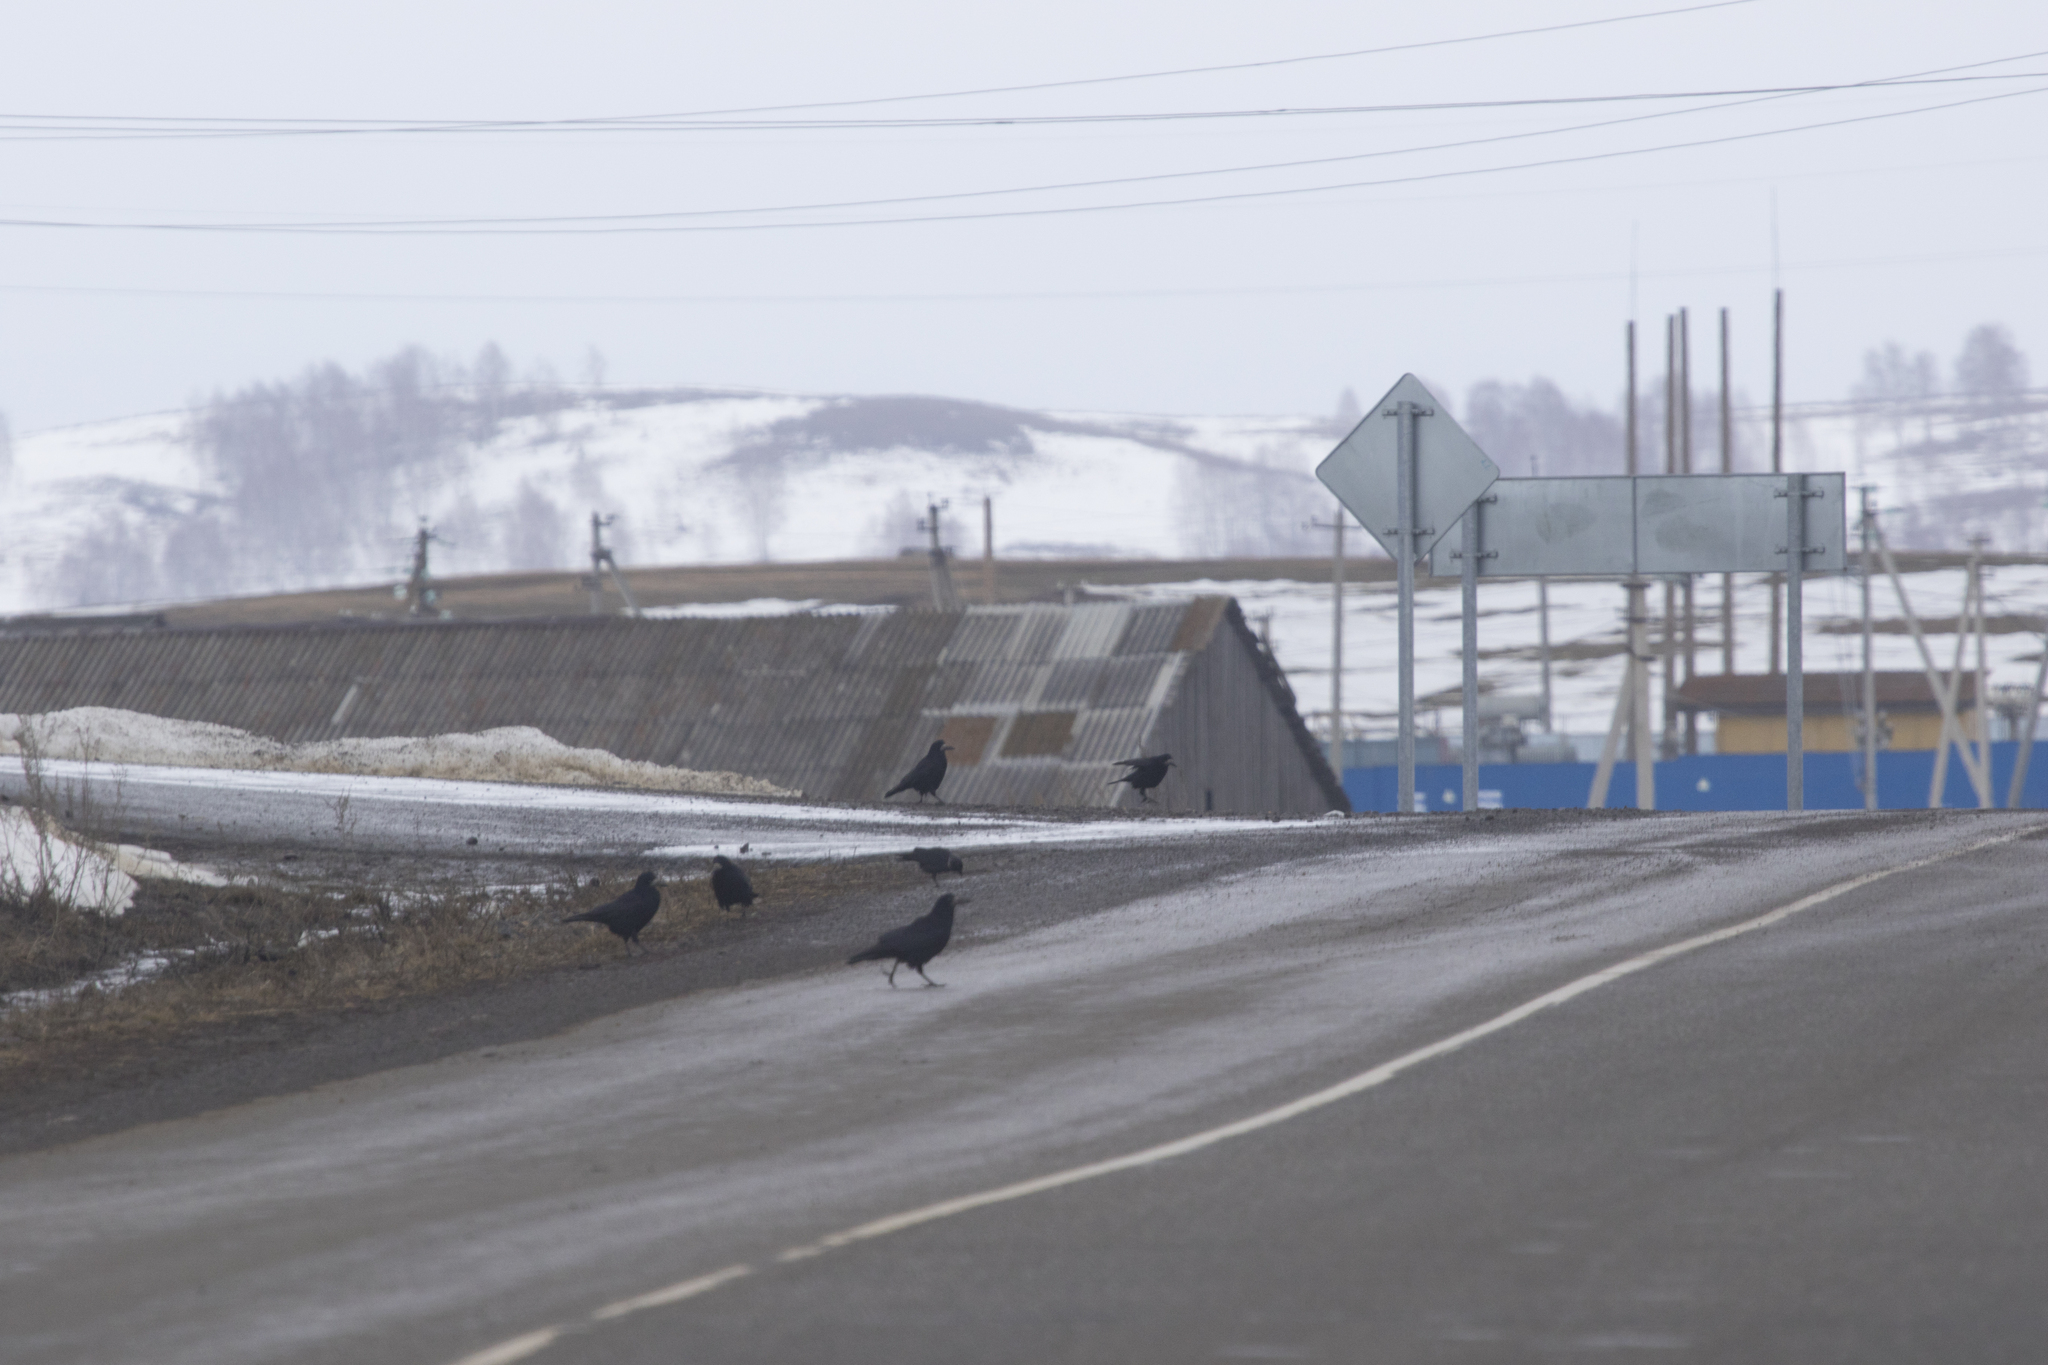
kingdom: Animalia
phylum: Chordata
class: Aves
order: Passeriformes
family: Corvidae
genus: Corvus
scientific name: Corvus frugilegus
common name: Rook
